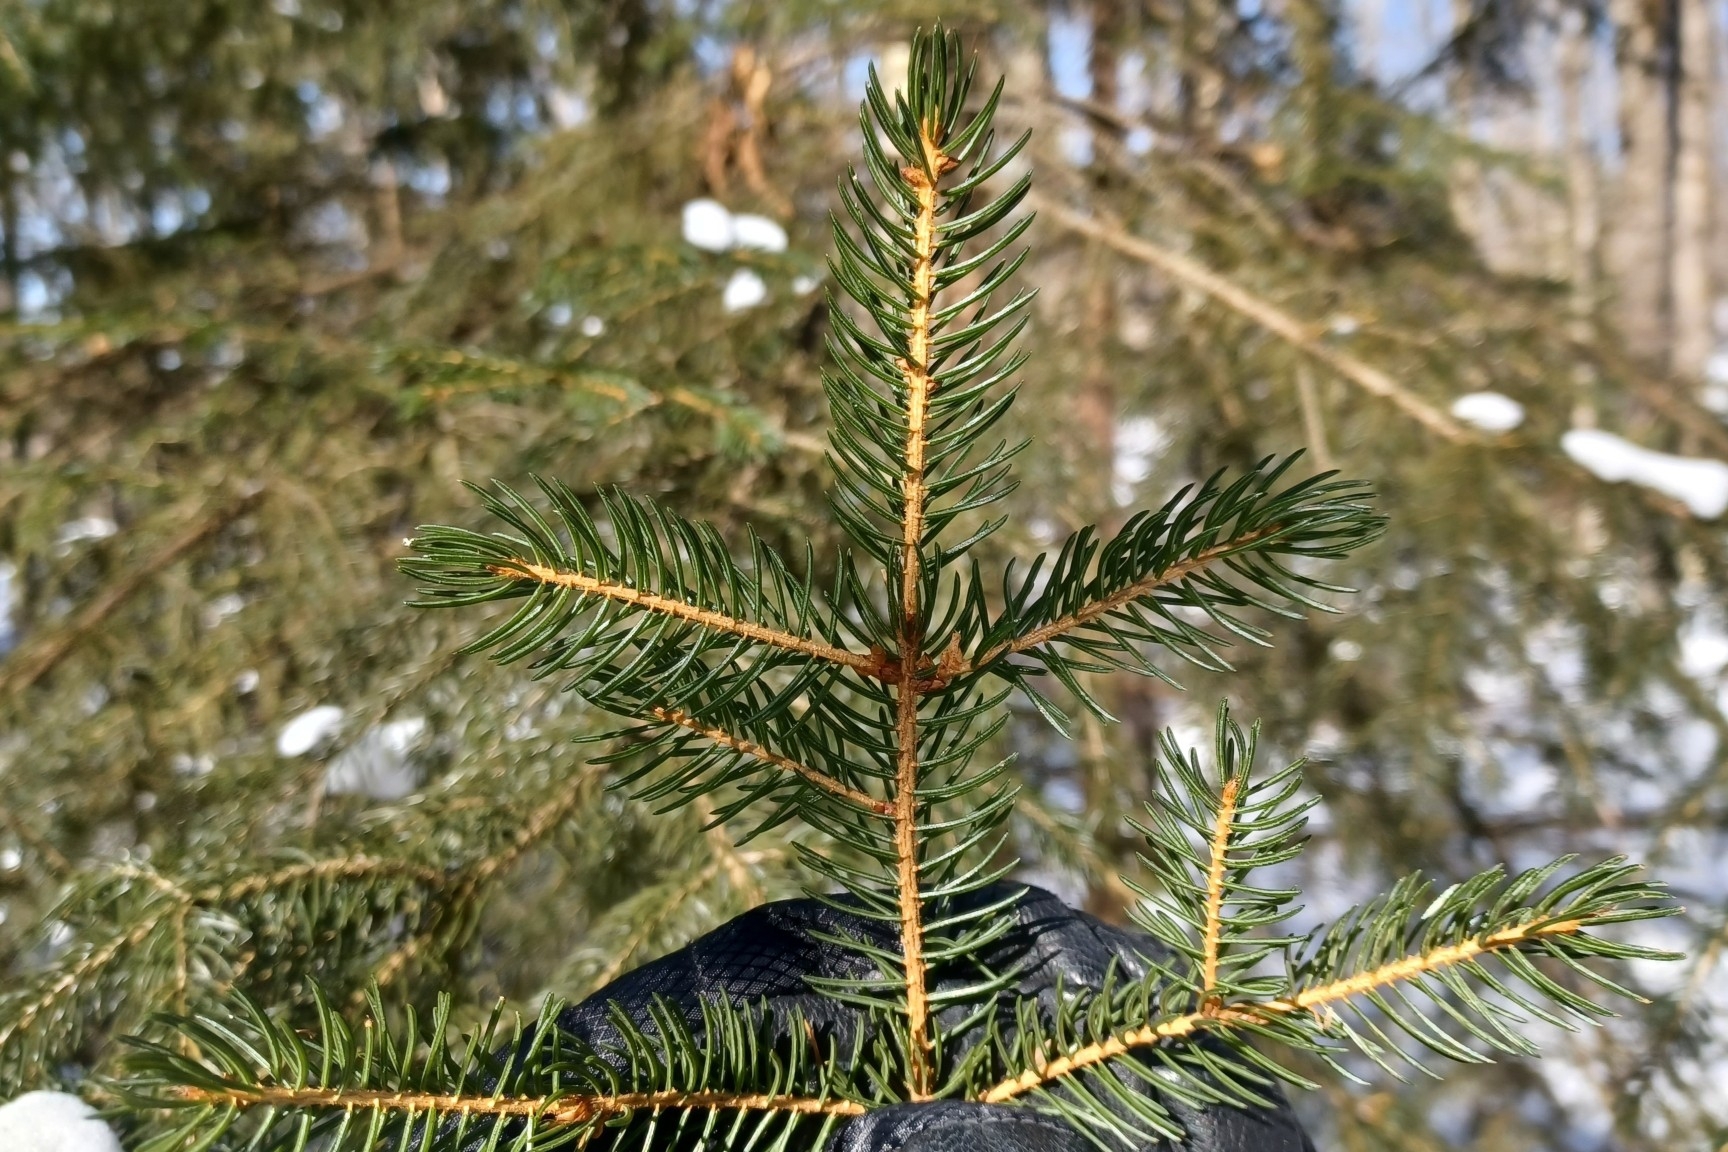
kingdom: Plantae
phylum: Tracheophyta
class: Pinopsida
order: Pinales
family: Pinaceae
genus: Picea
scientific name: Picea rubens
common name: Red spruce
